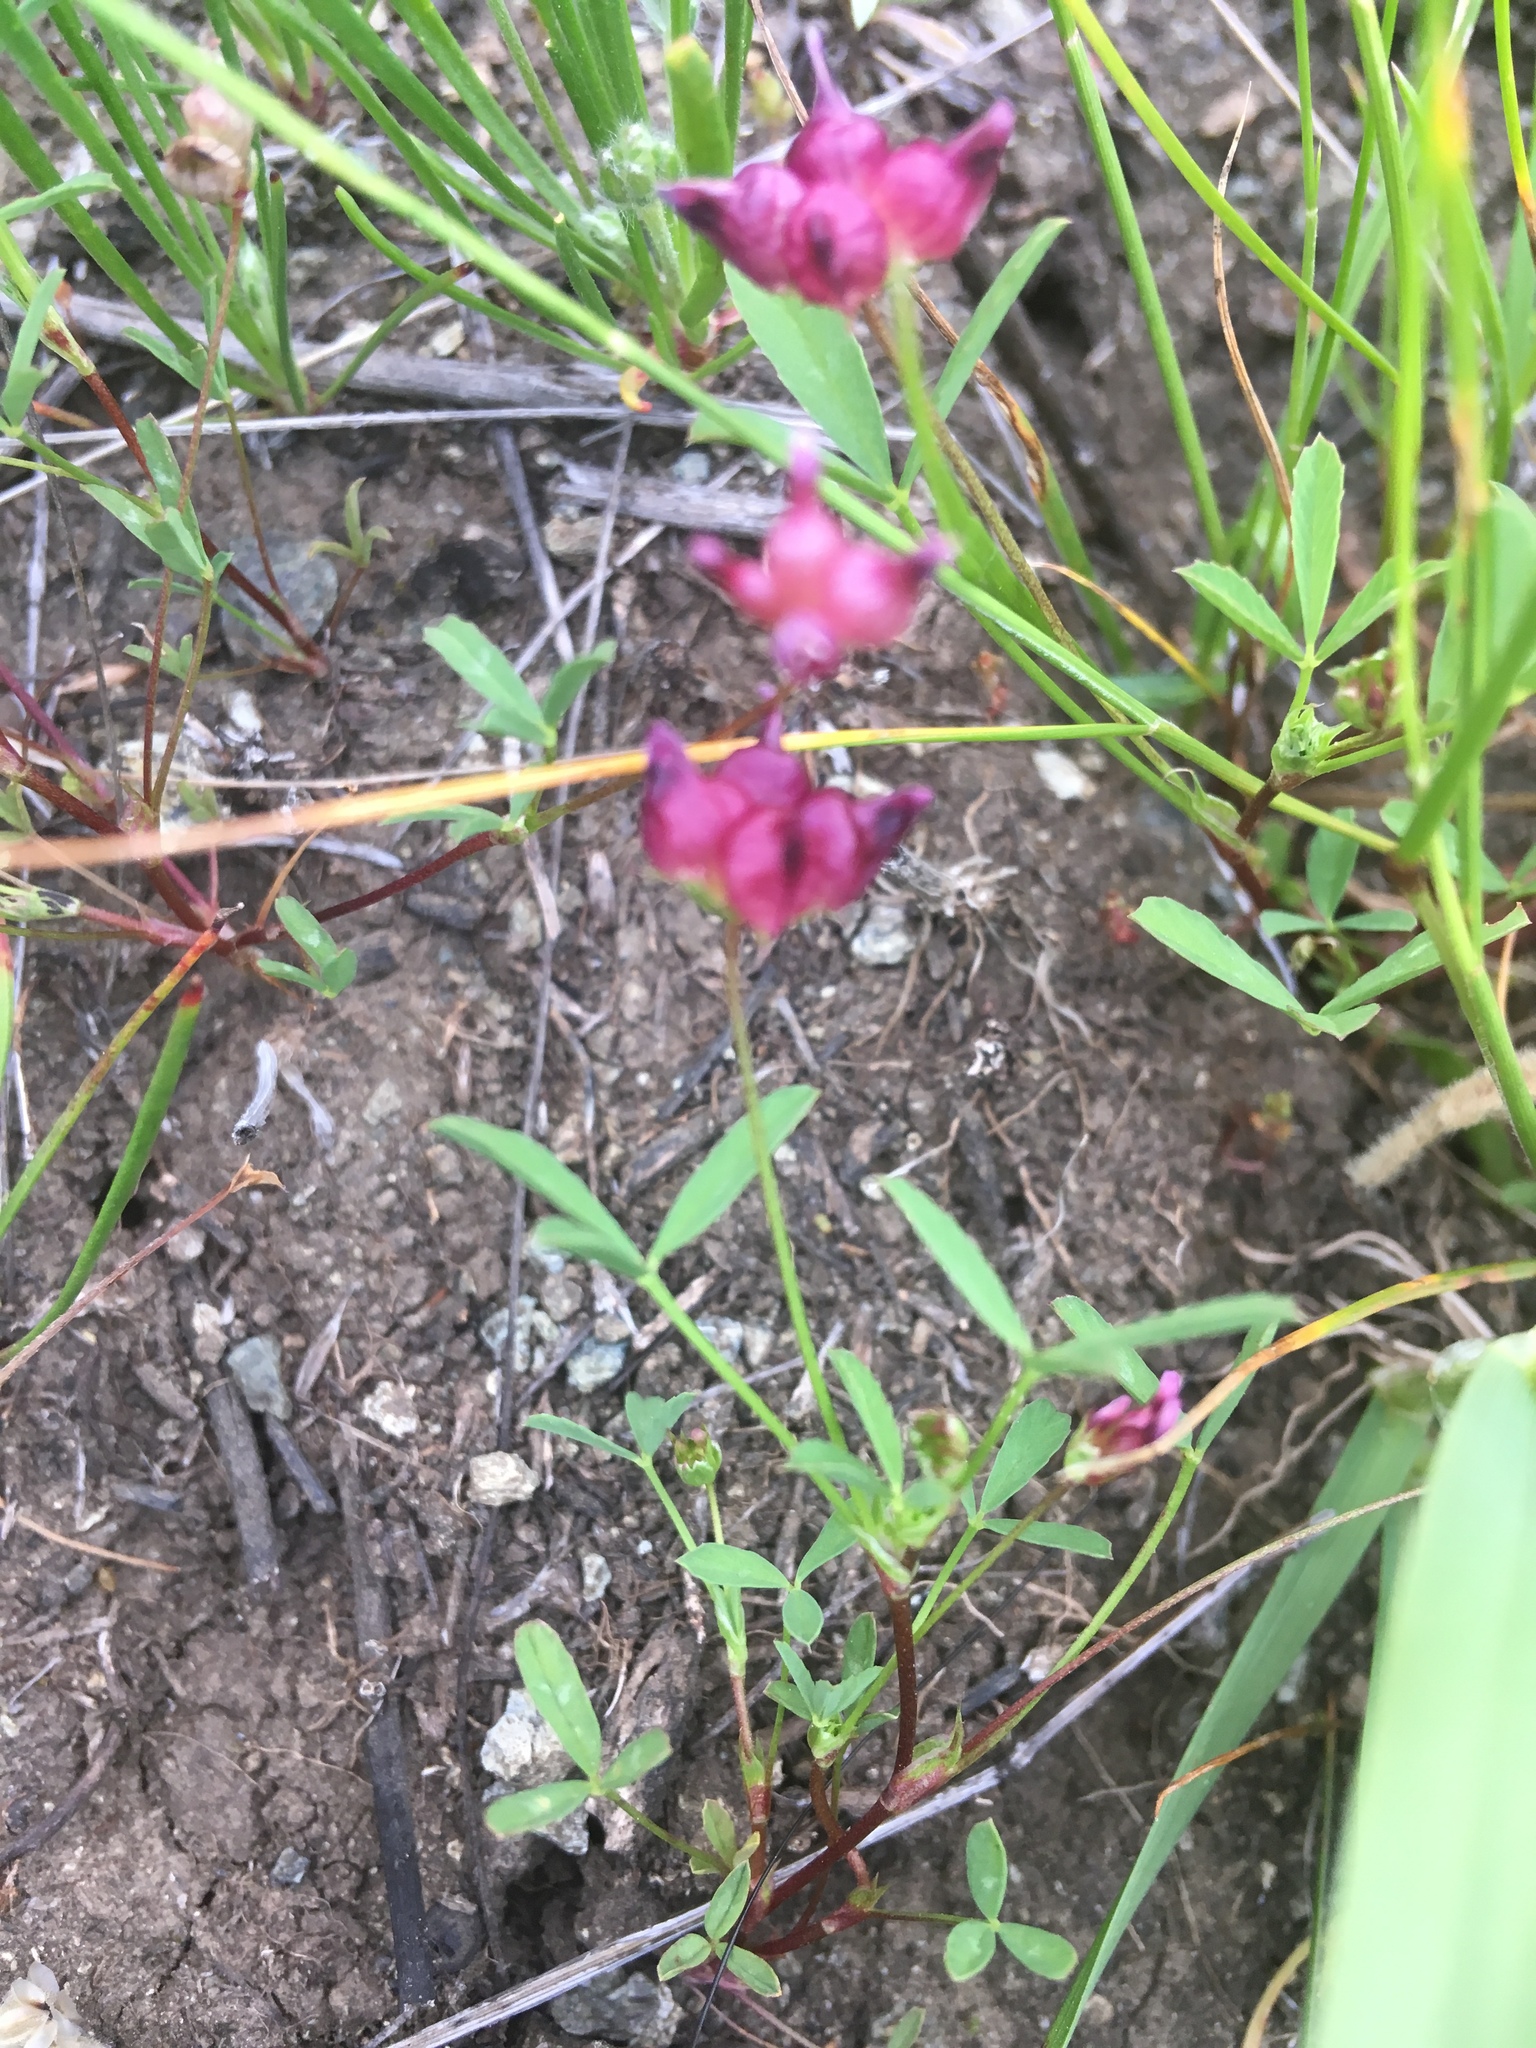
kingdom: Plantae
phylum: Tracheophyta
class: Magnoliopsida
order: Fabales
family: Fabaceae
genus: Trifolium
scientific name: Trifolium depauperatum
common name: Poverty clover
